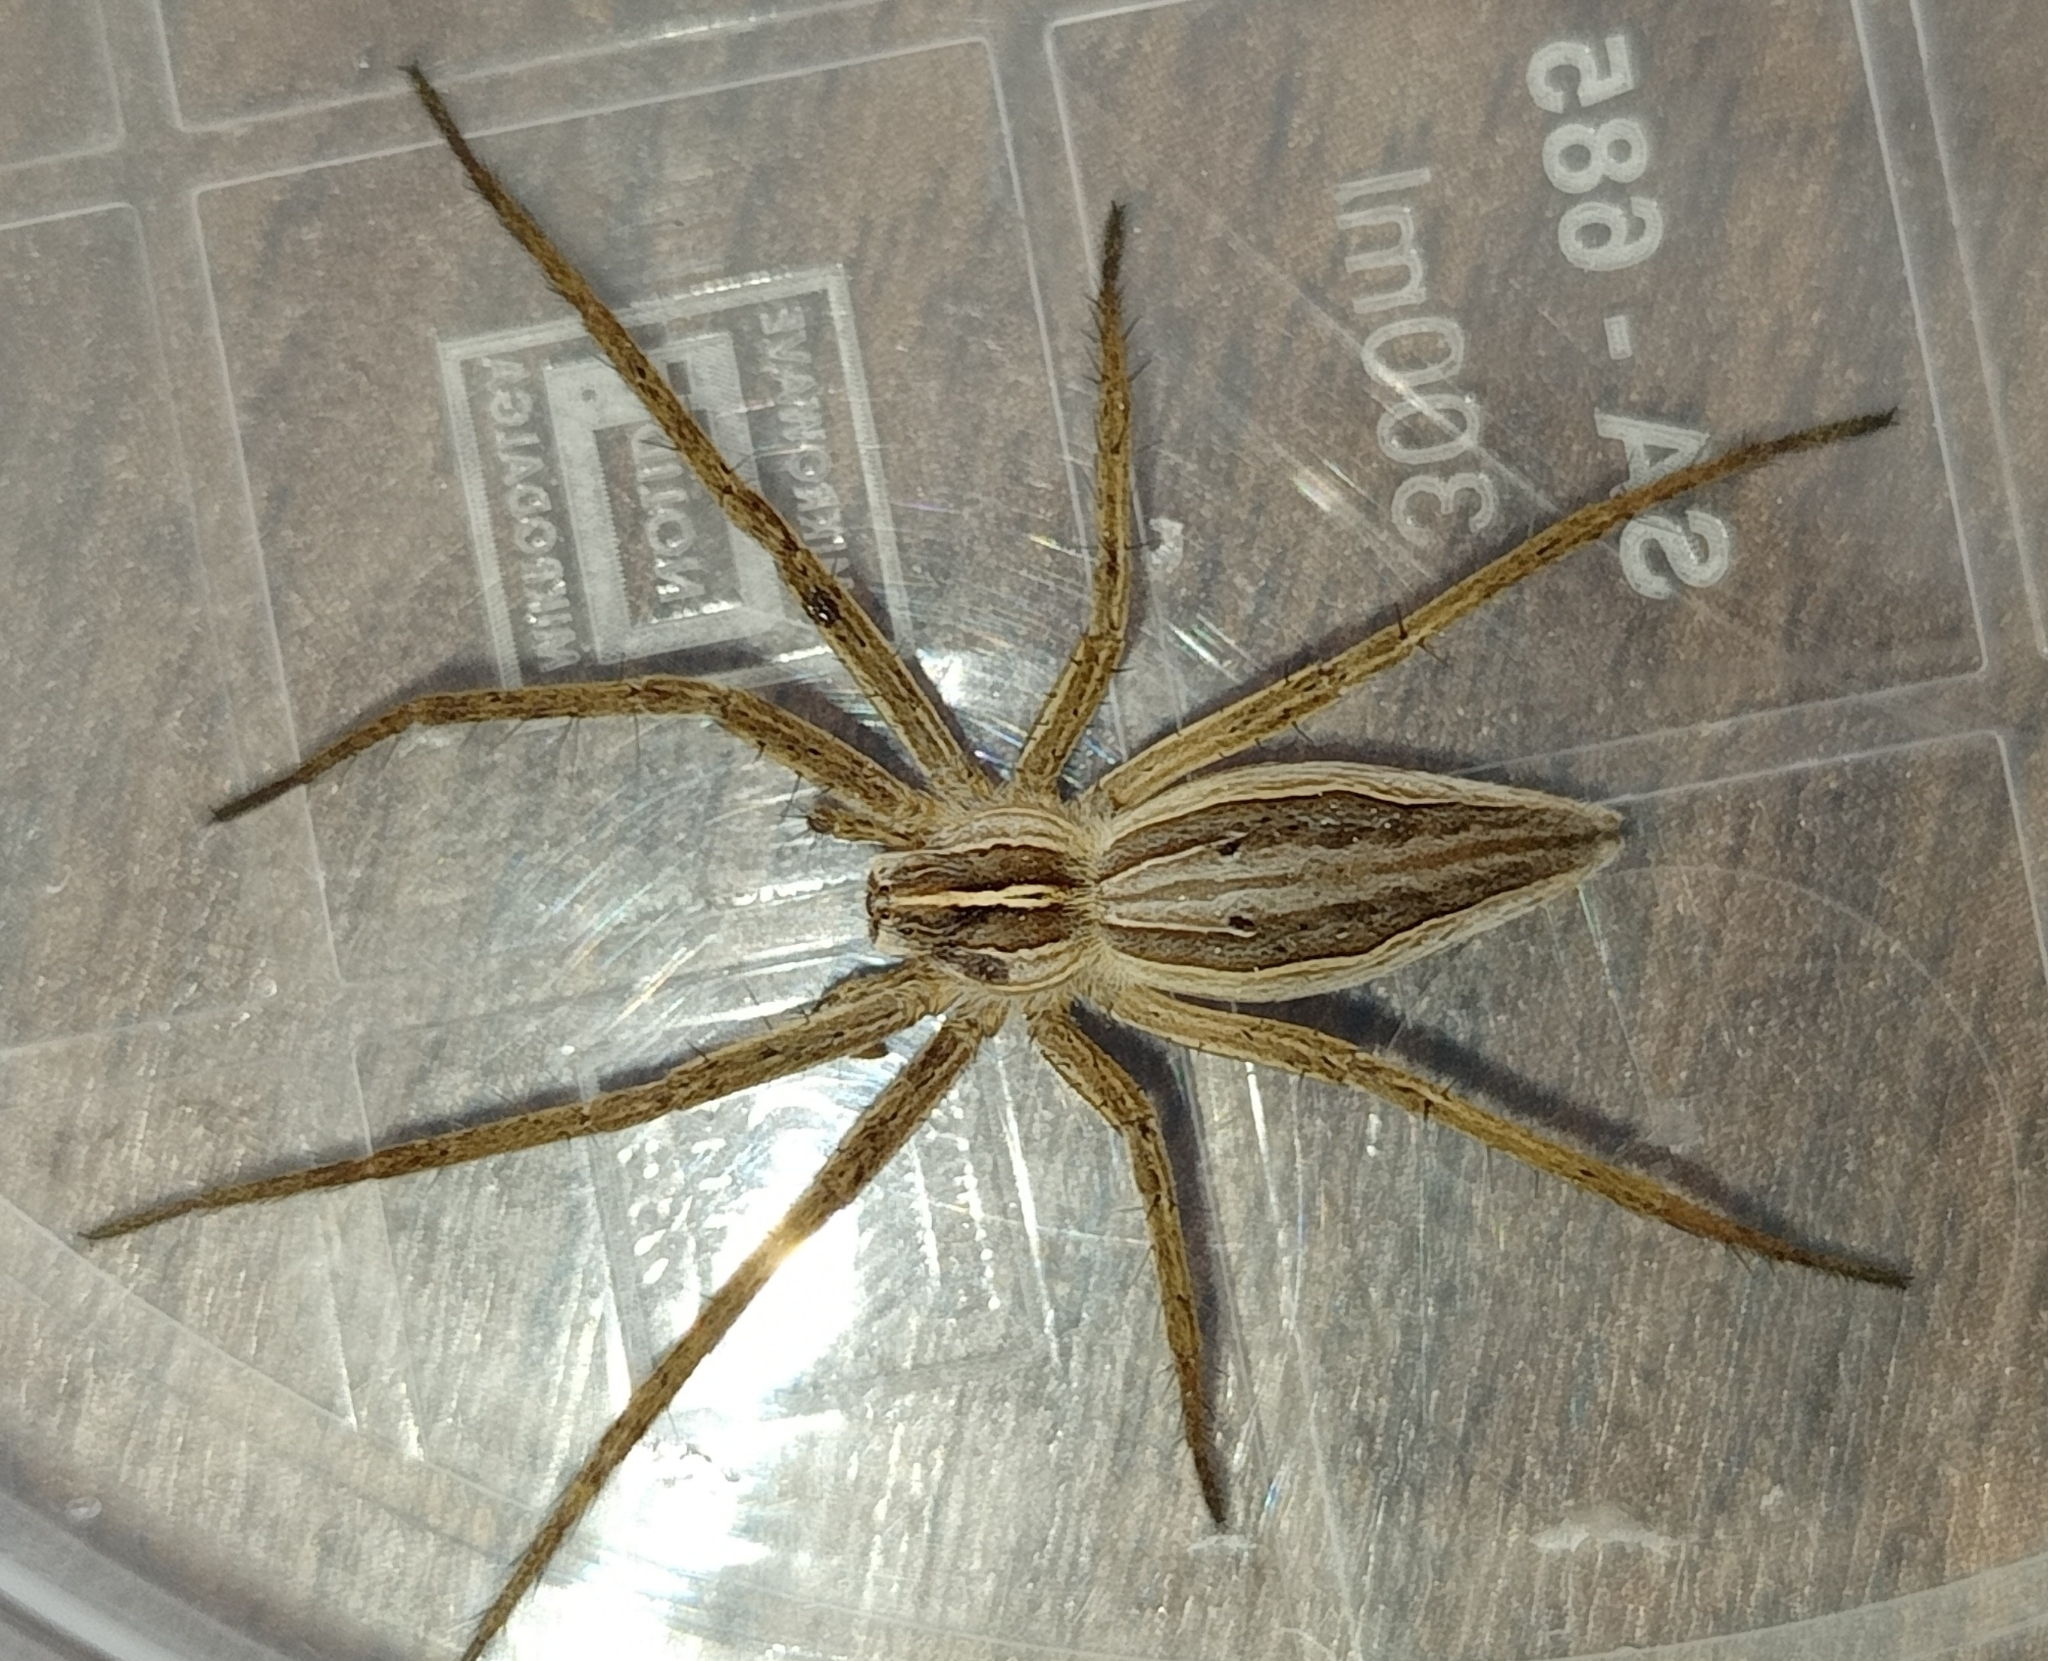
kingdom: Animalia
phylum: Arthropoda
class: Arachnida
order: Araneae
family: Pisauridae
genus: Pisaura
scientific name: Pisaura mirabilis
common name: Tent spider
